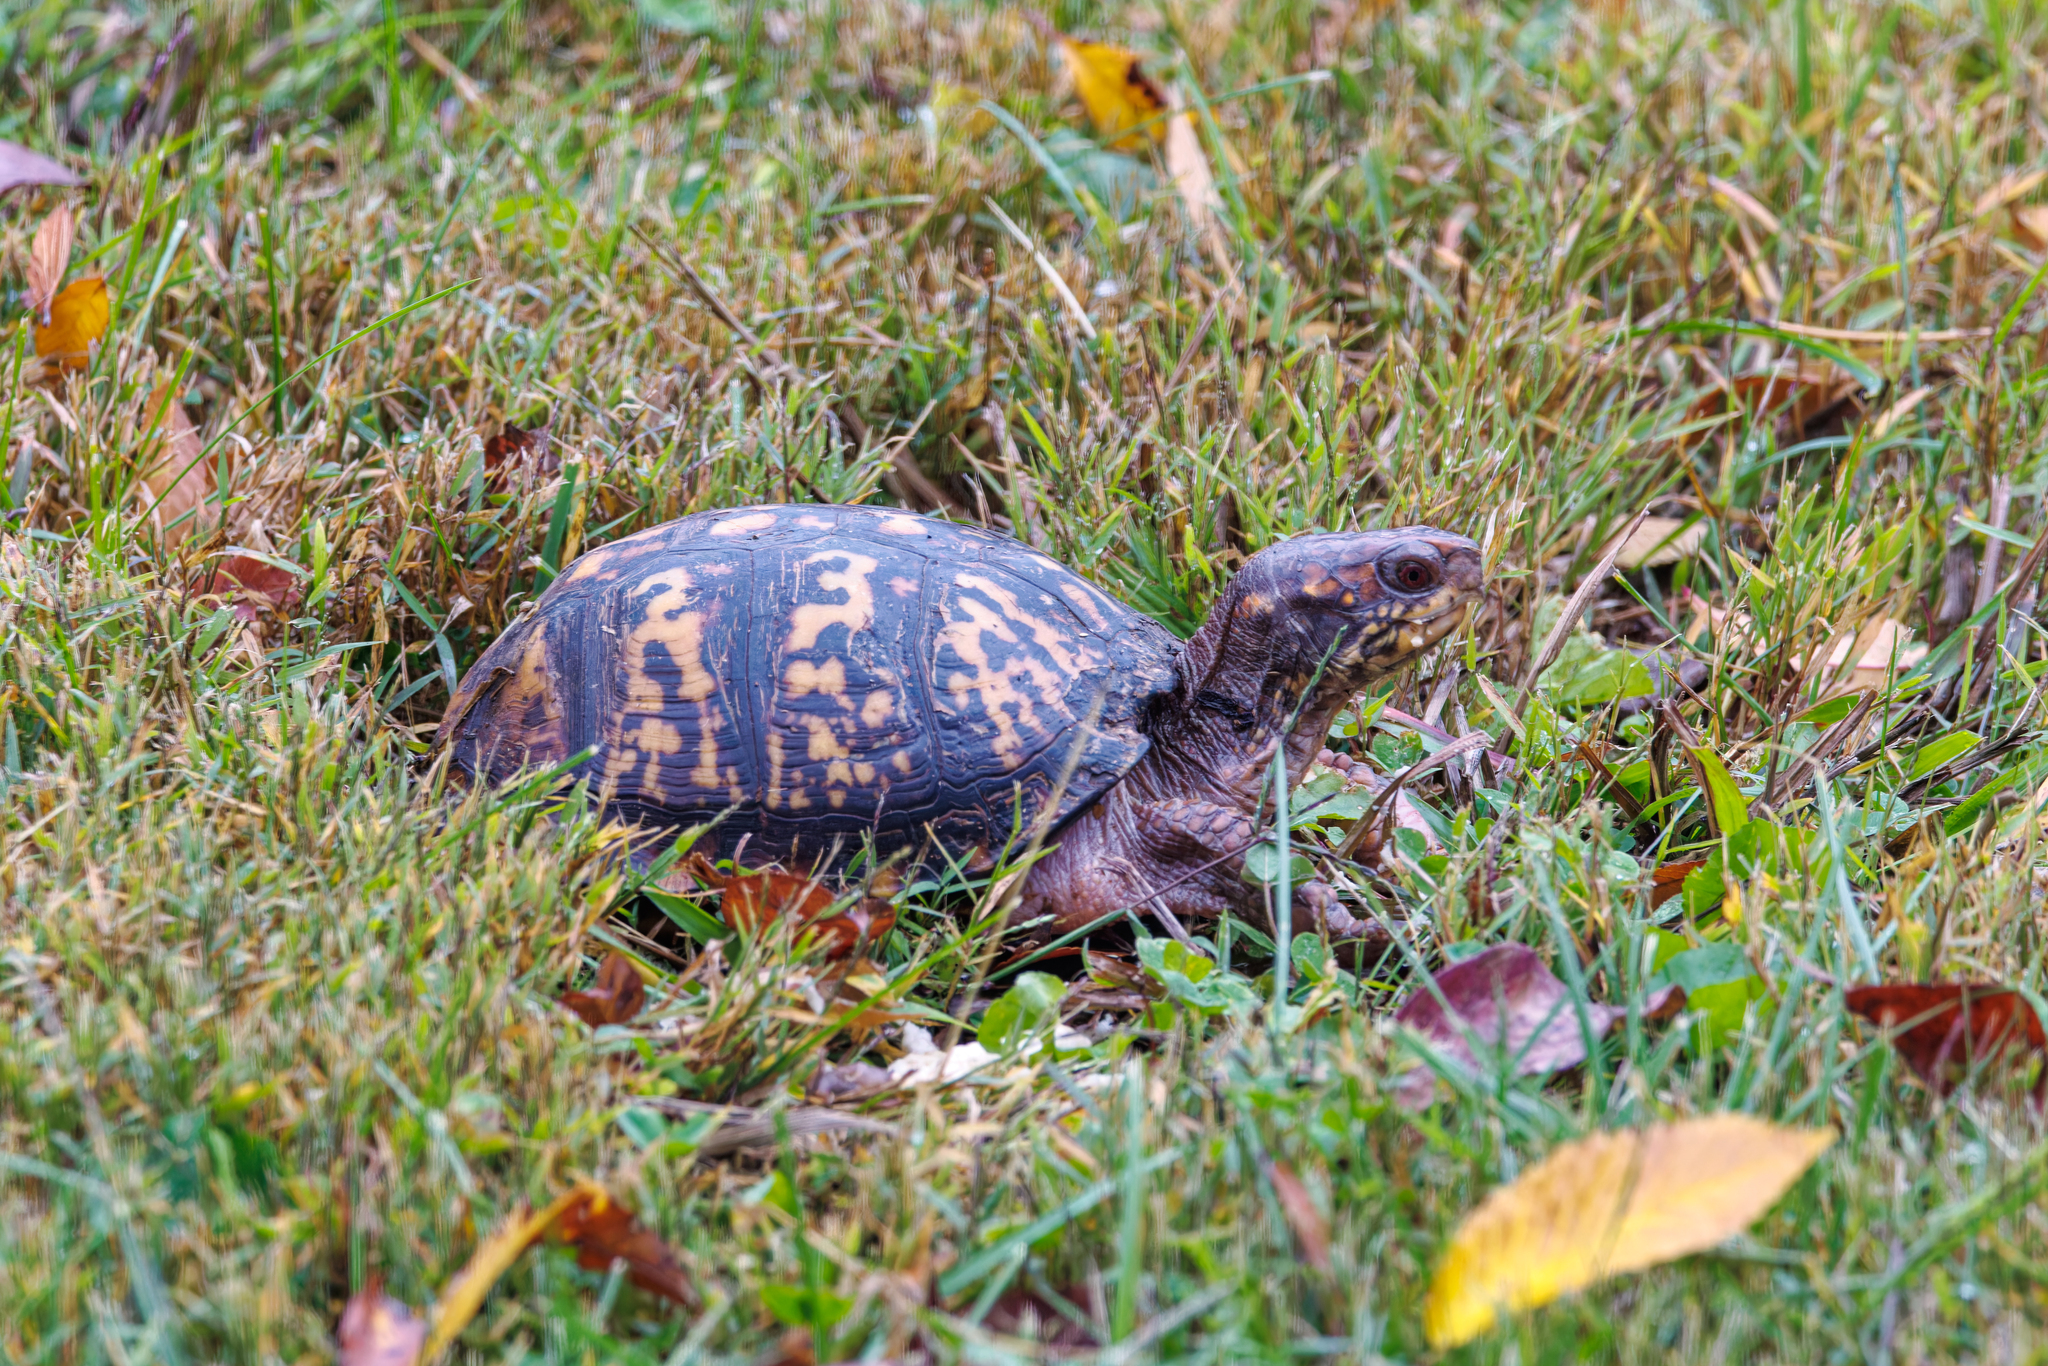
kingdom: Animalia
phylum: Chordata
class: Testudines
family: Emydidae
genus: Terrapene
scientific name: Terrapene carolina
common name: Common box turtle
